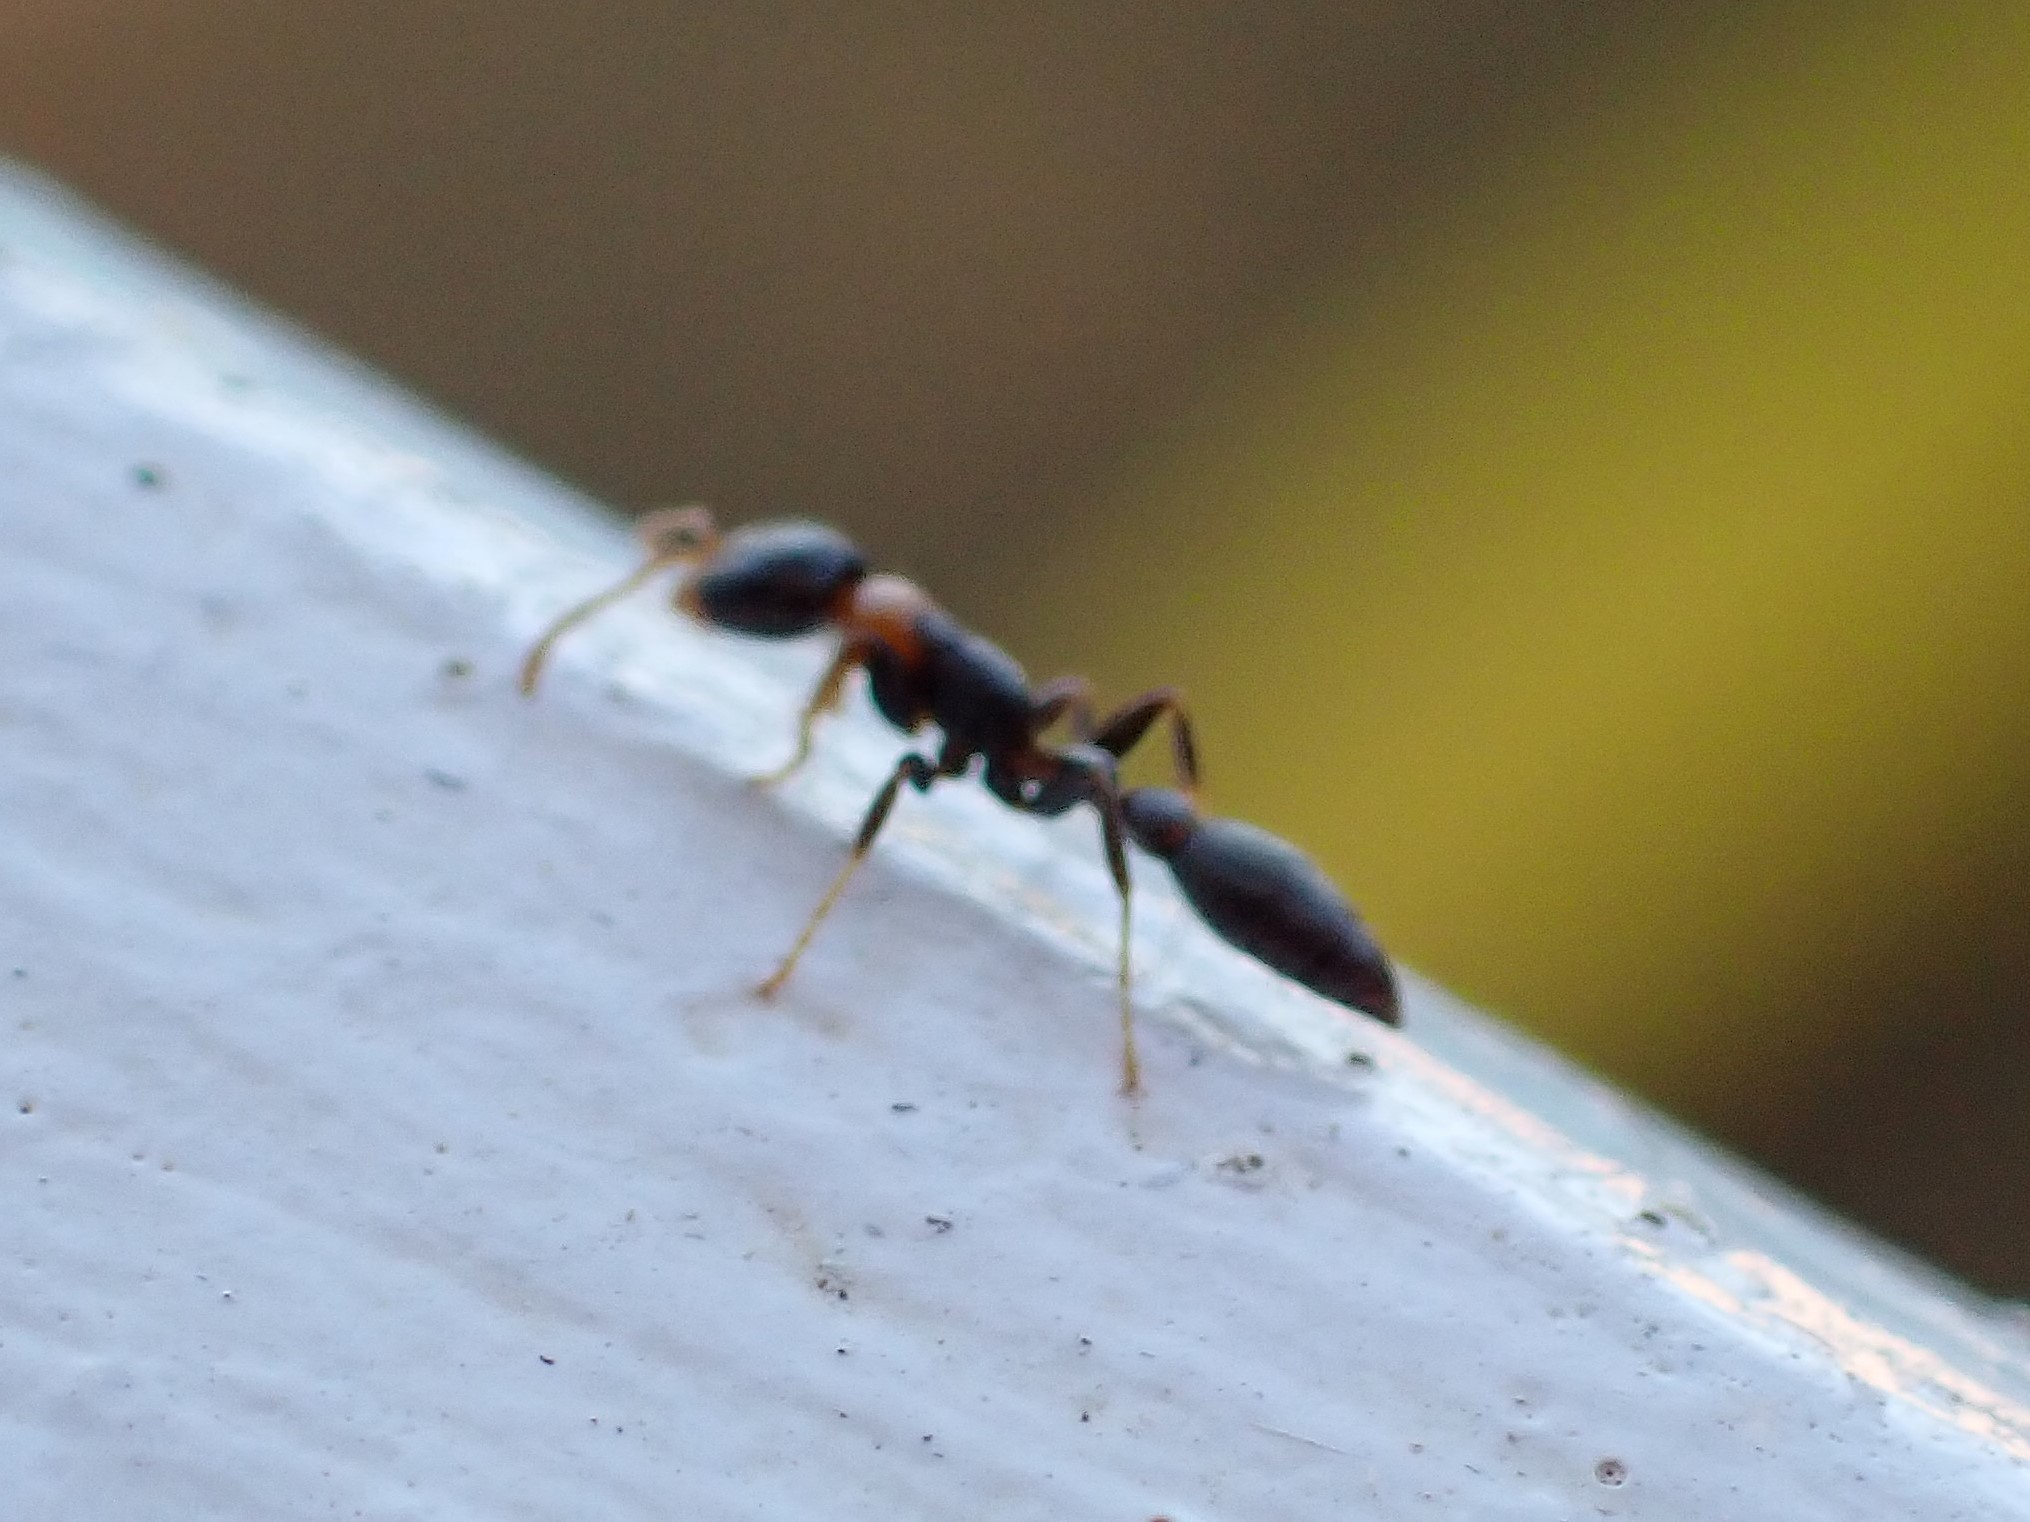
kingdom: Animalia
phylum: Arthropoda
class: Insecta
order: Hymenoptera
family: Formicidae
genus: Pseudomyrmex
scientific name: Pseudomyrmex haytianus
